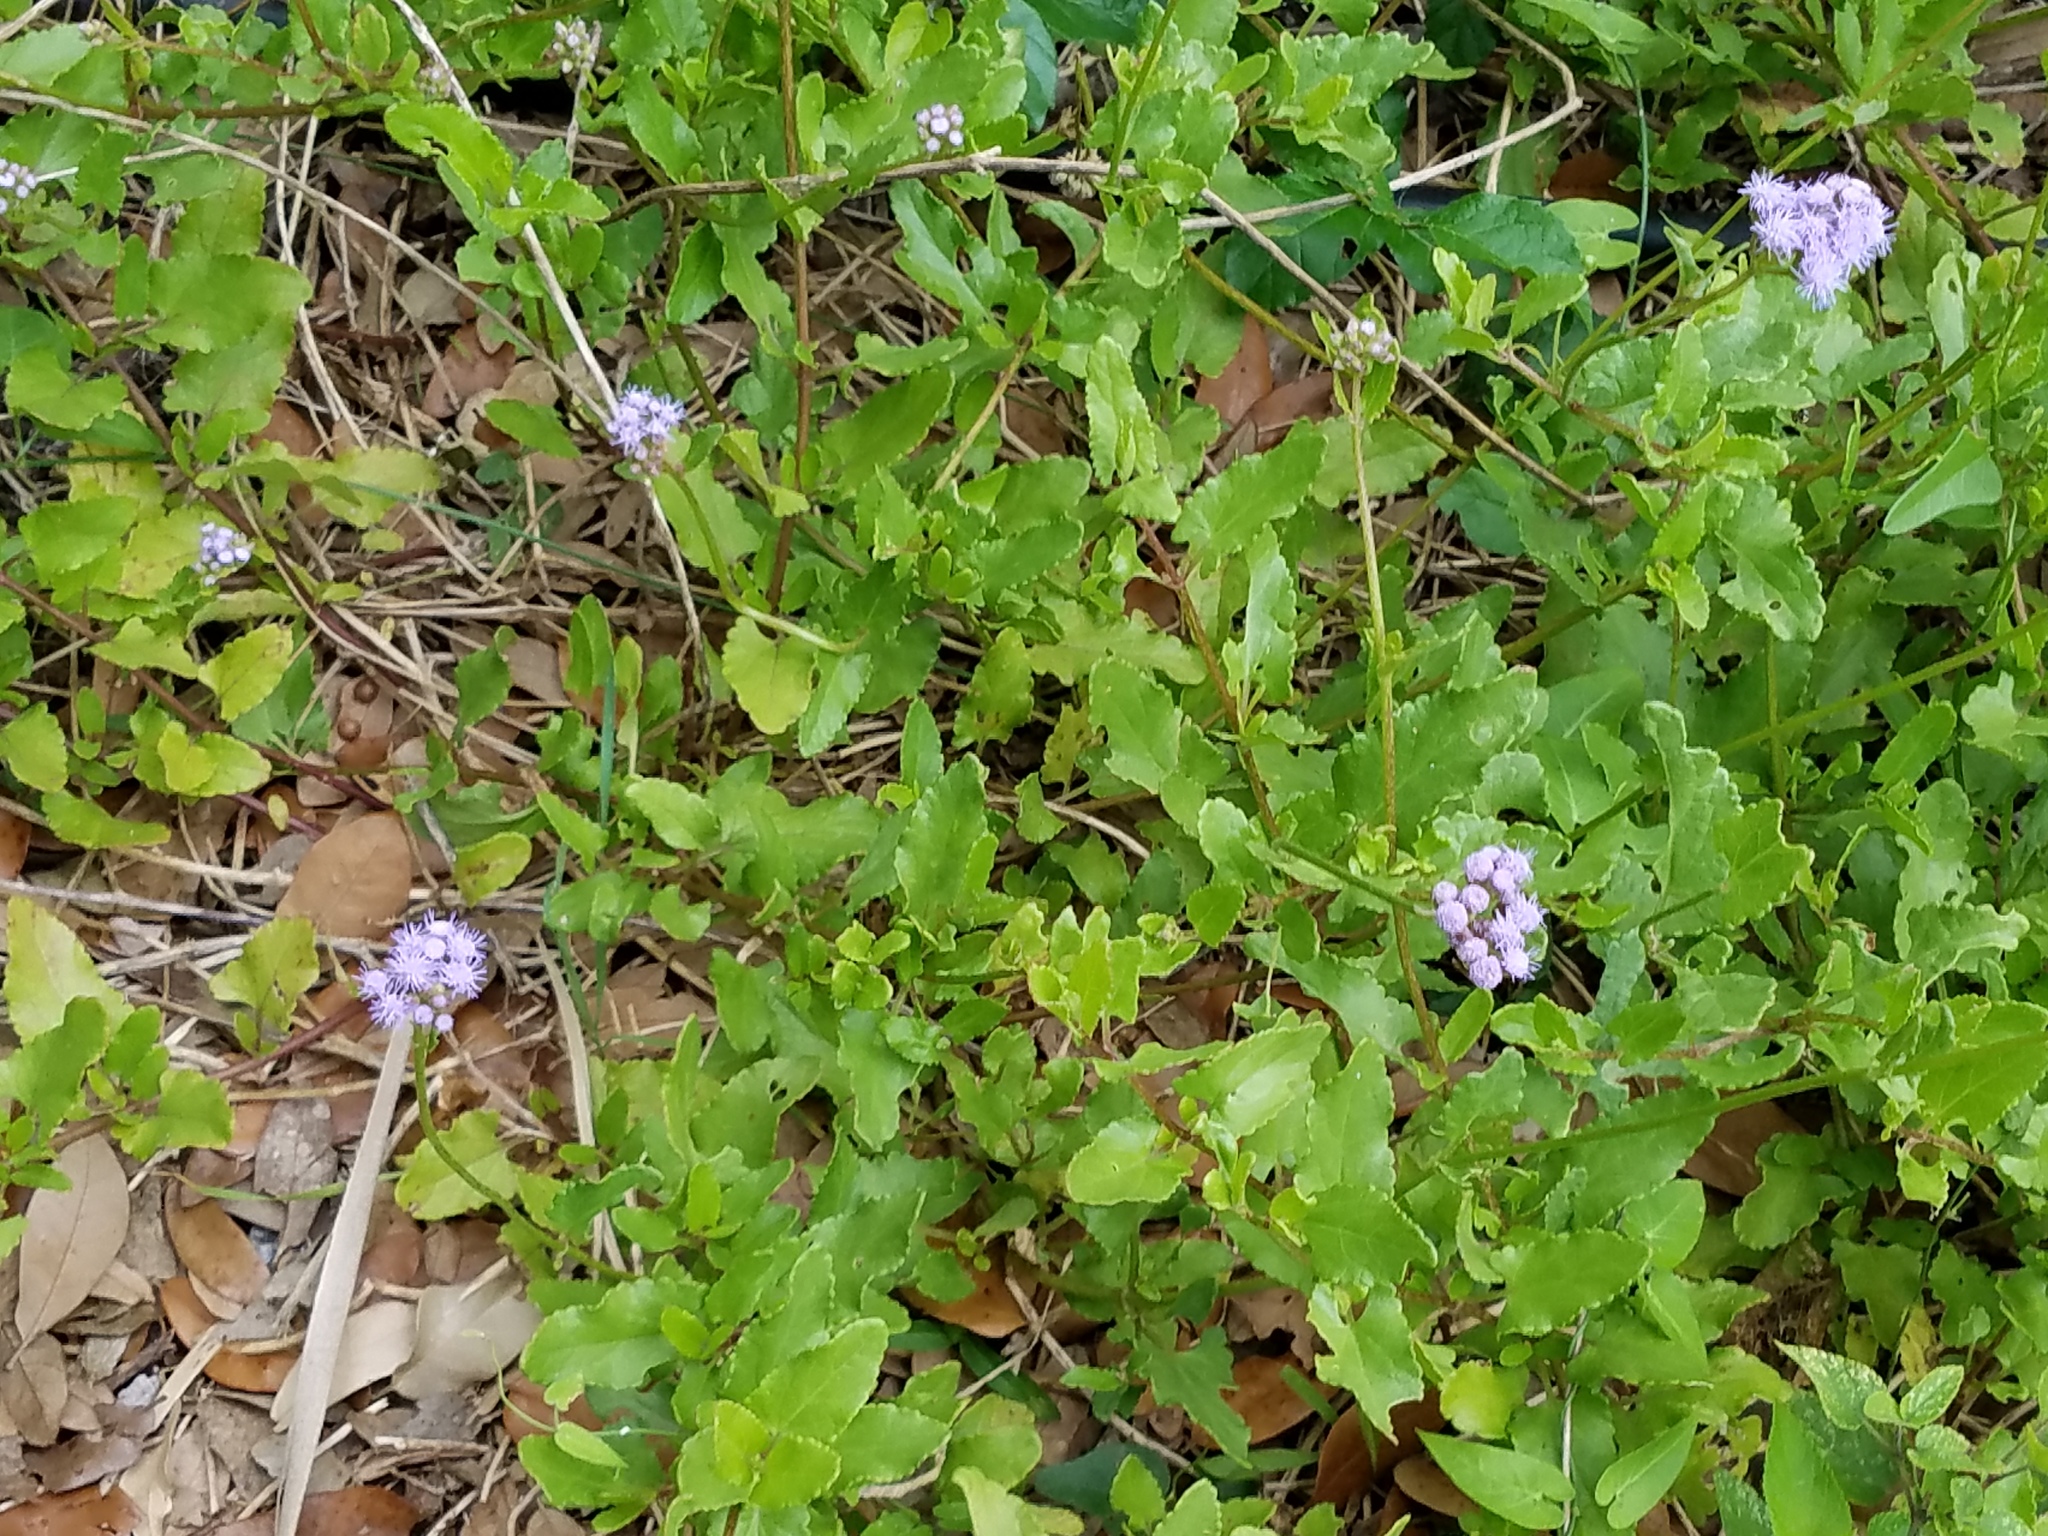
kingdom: Plantae
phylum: Tracheophyta
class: Magnoliopsida
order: Asterales
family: Asteraceae
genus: Conoclinium
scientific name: Conoclinium betonicifolium
